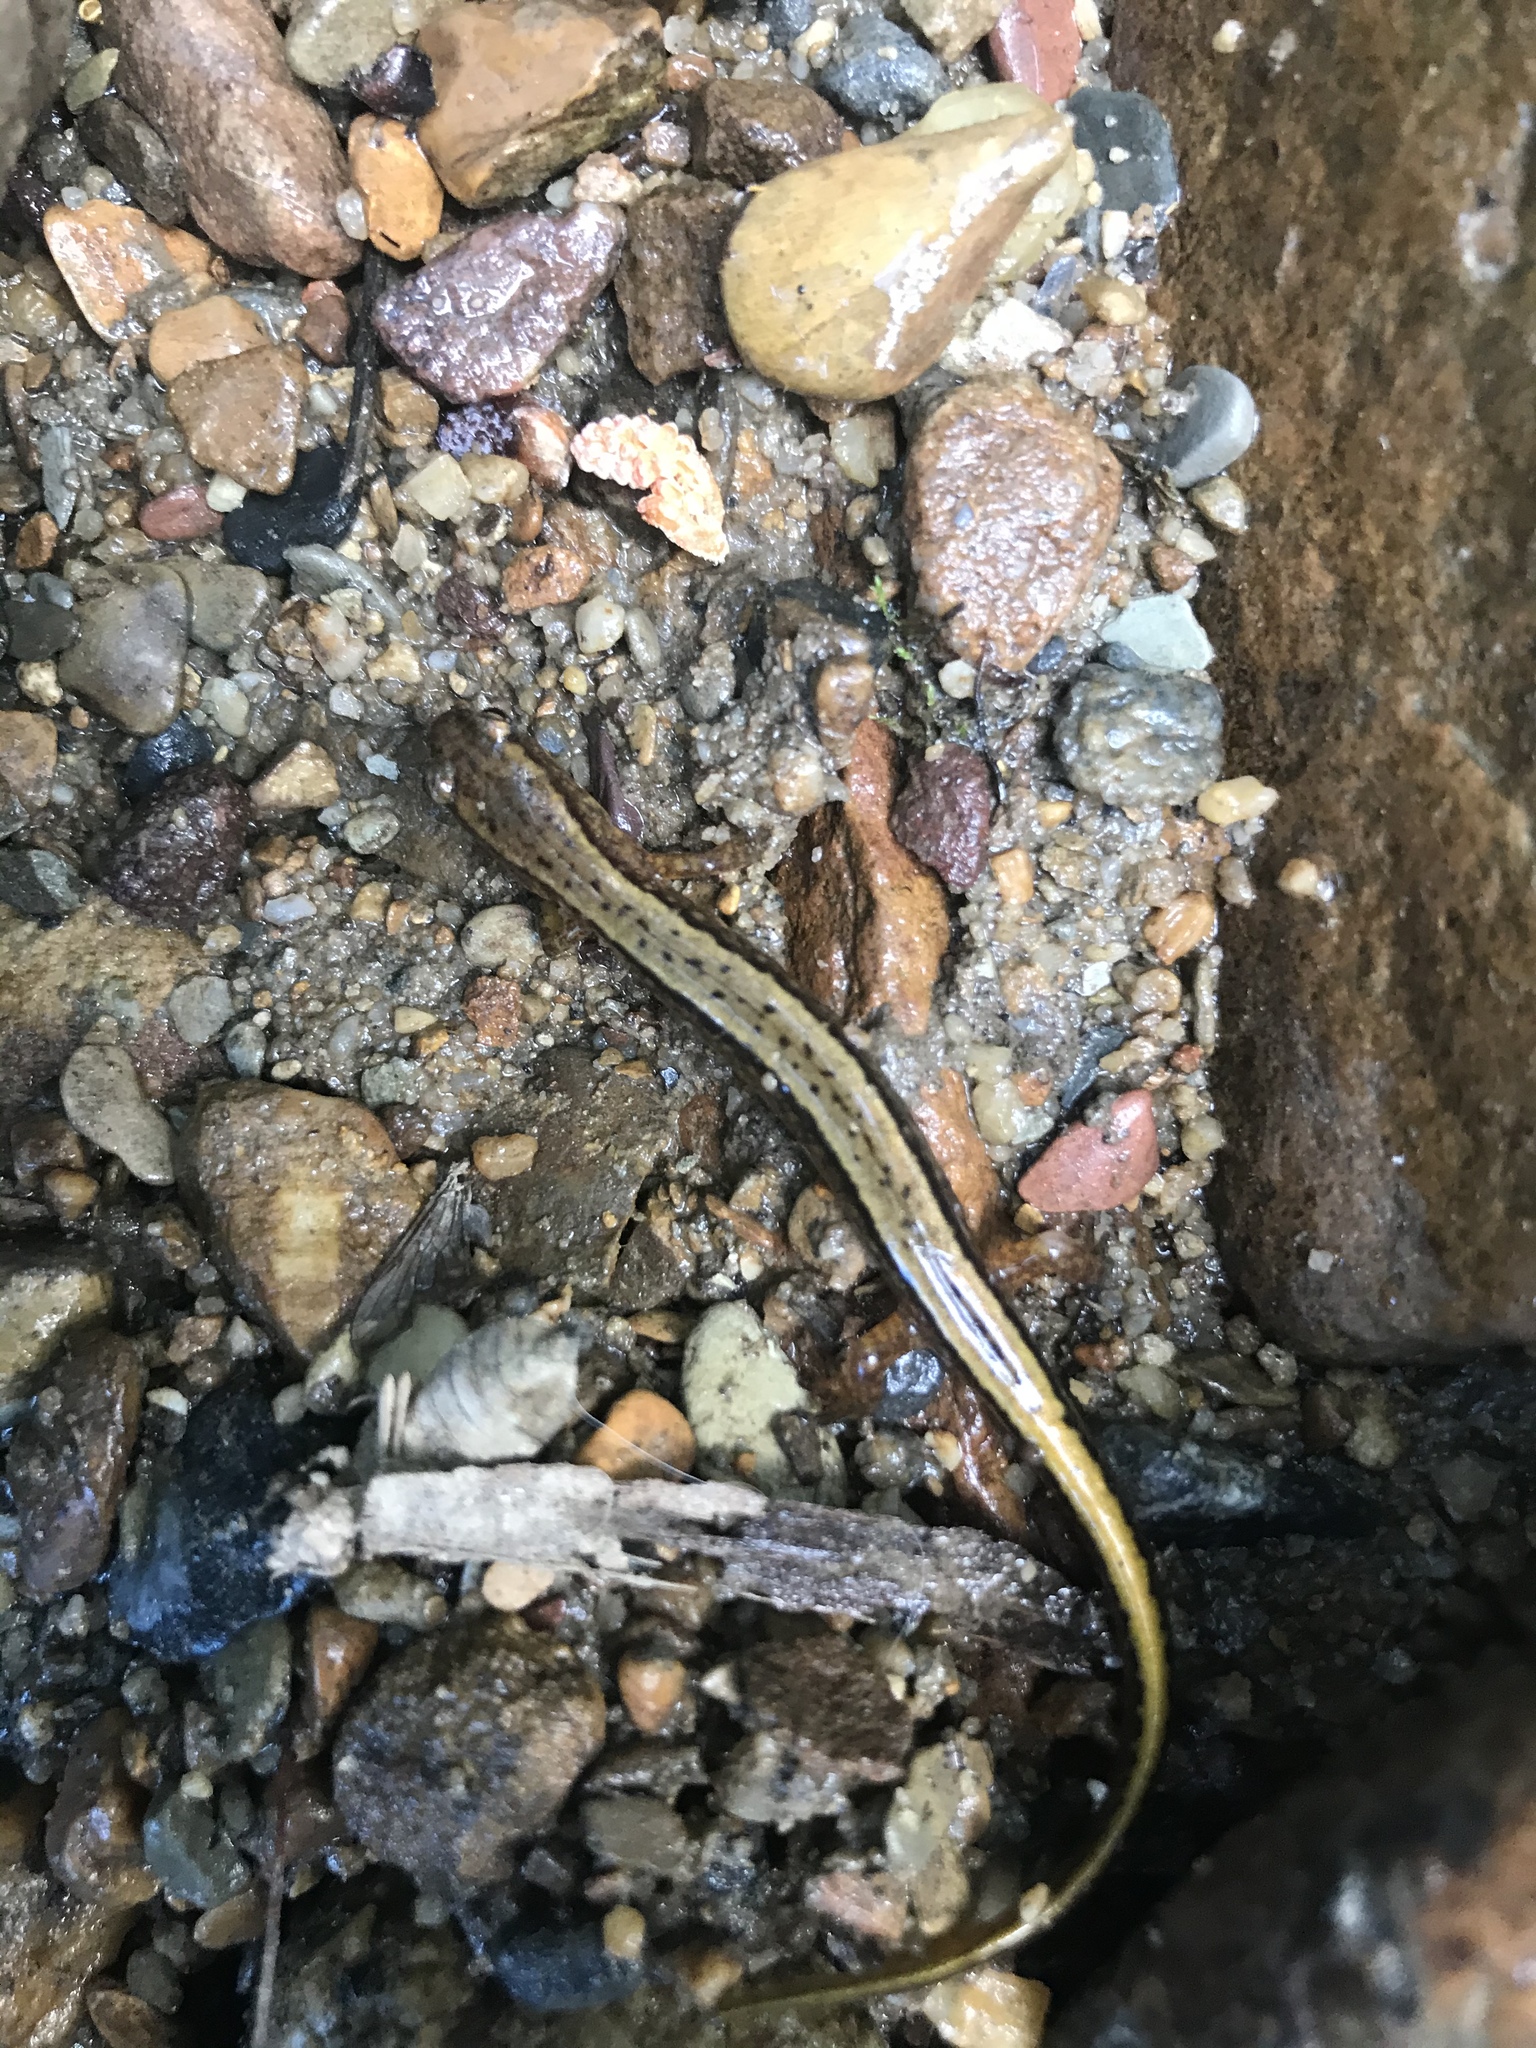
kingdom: Animalia
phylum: Chordata
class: Amphibia
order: Caudata
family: Plethodontidae
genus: Eurycea
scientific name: Eurycea bislineata
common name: Northern two-lined salamander
